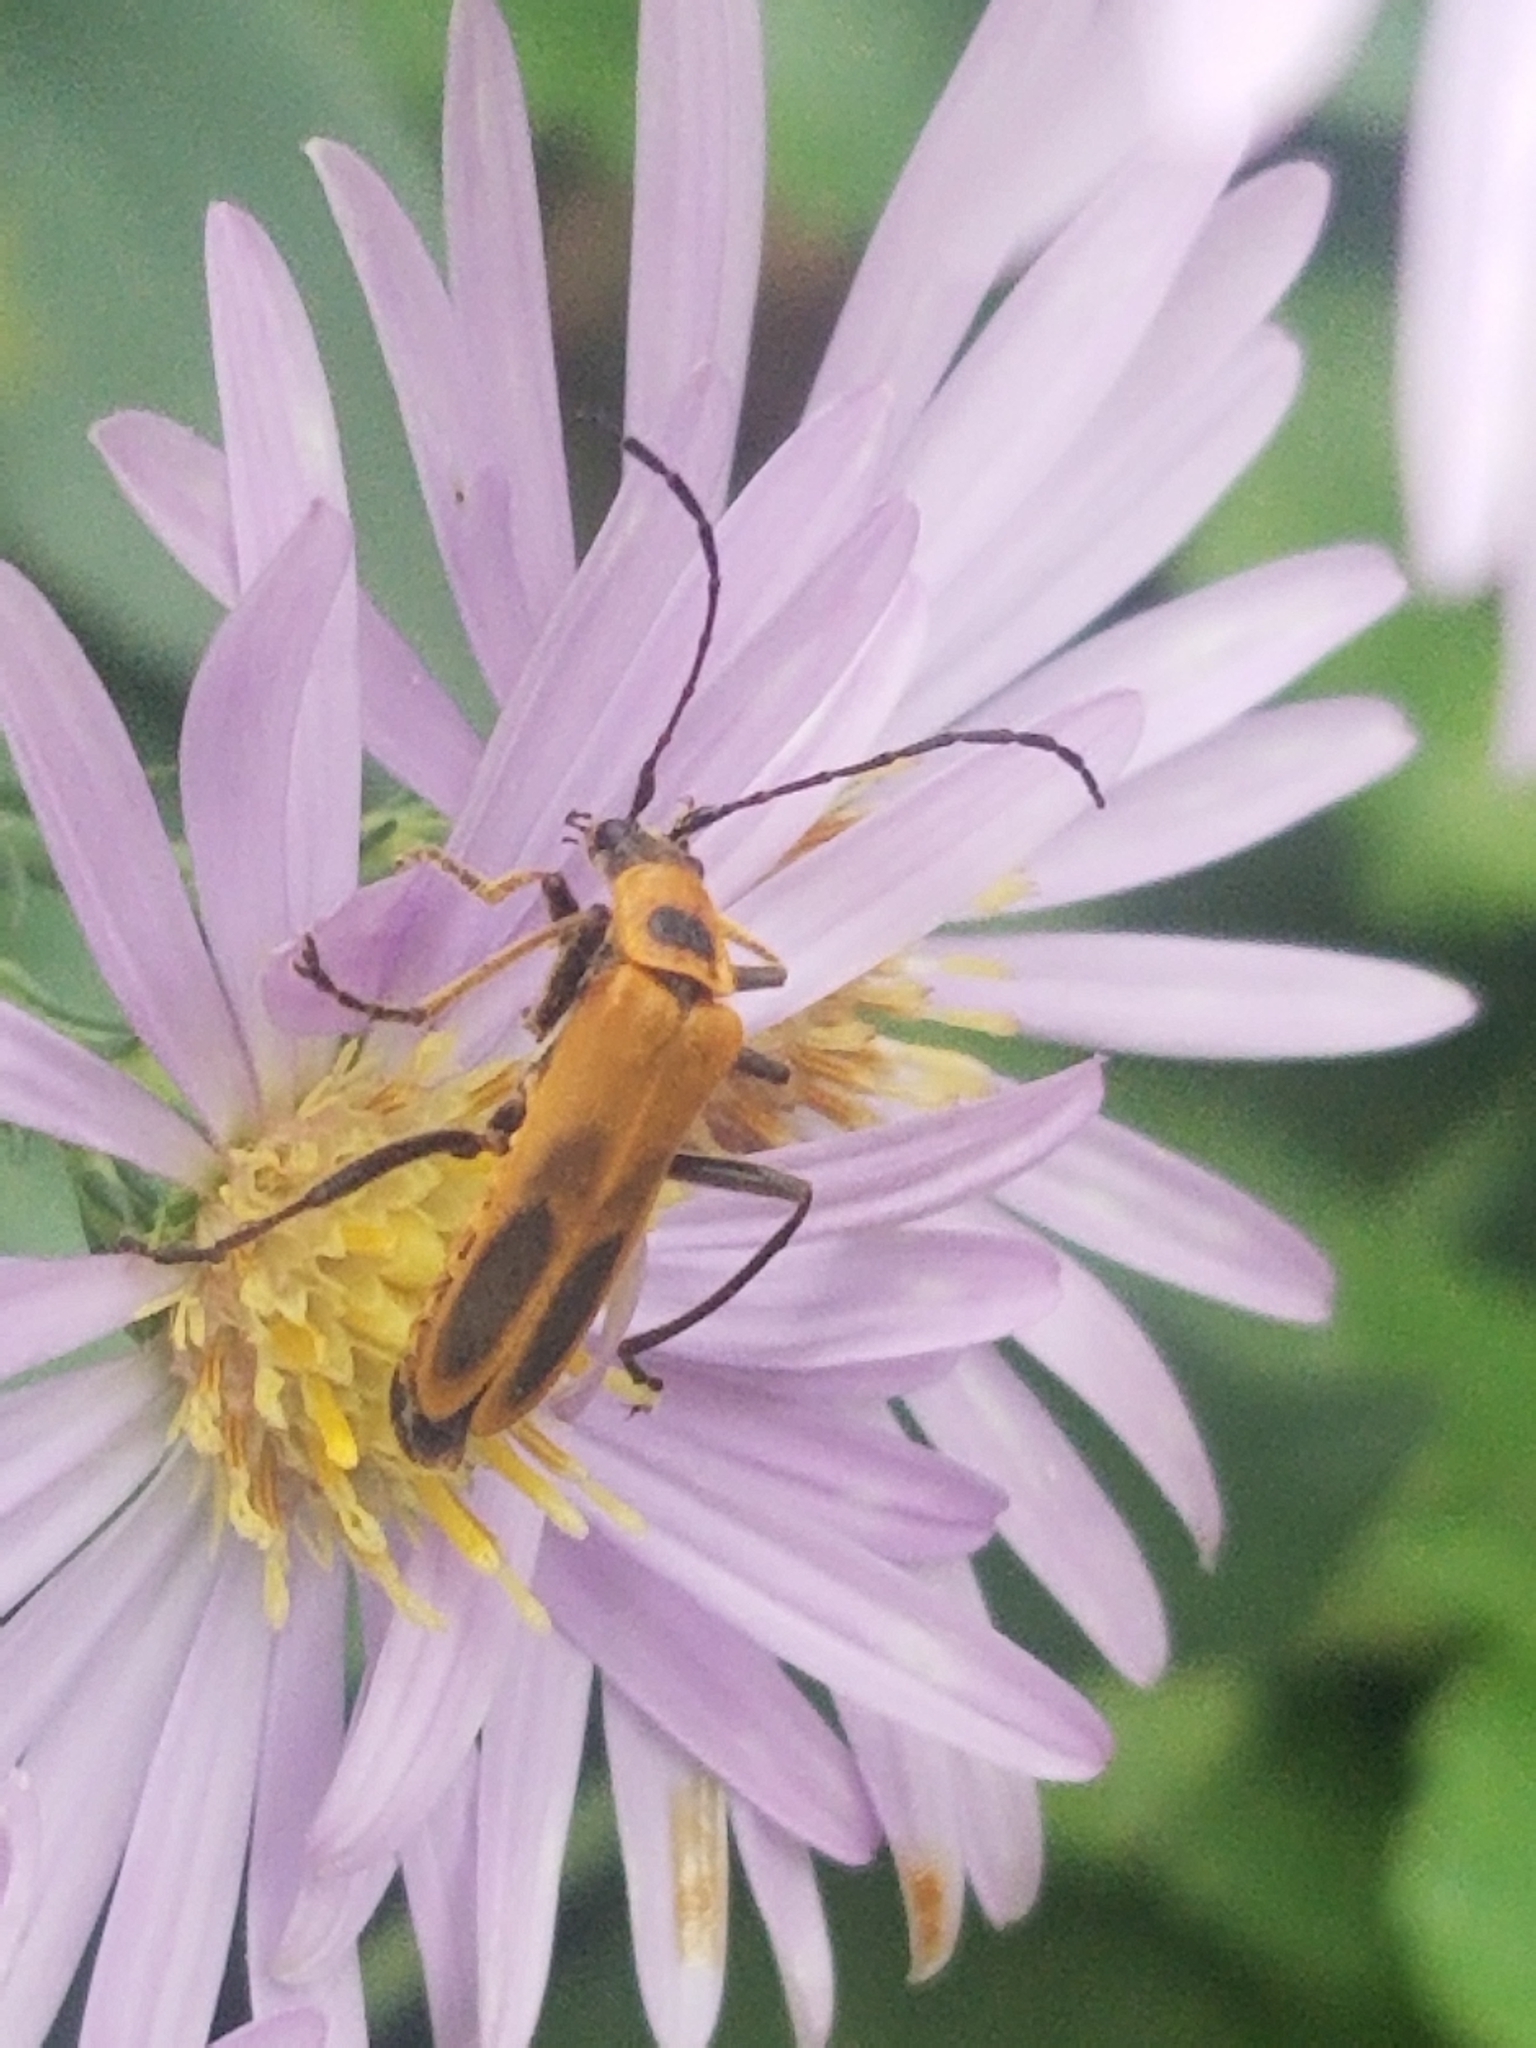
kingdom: Animalia
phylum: Arthropoda
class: Insecta
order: Coleoptera
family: Cantharidae
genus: Chauliognathus
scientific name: Chauliognathus pensylvanicus
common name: Goldenrod soldier beetle
